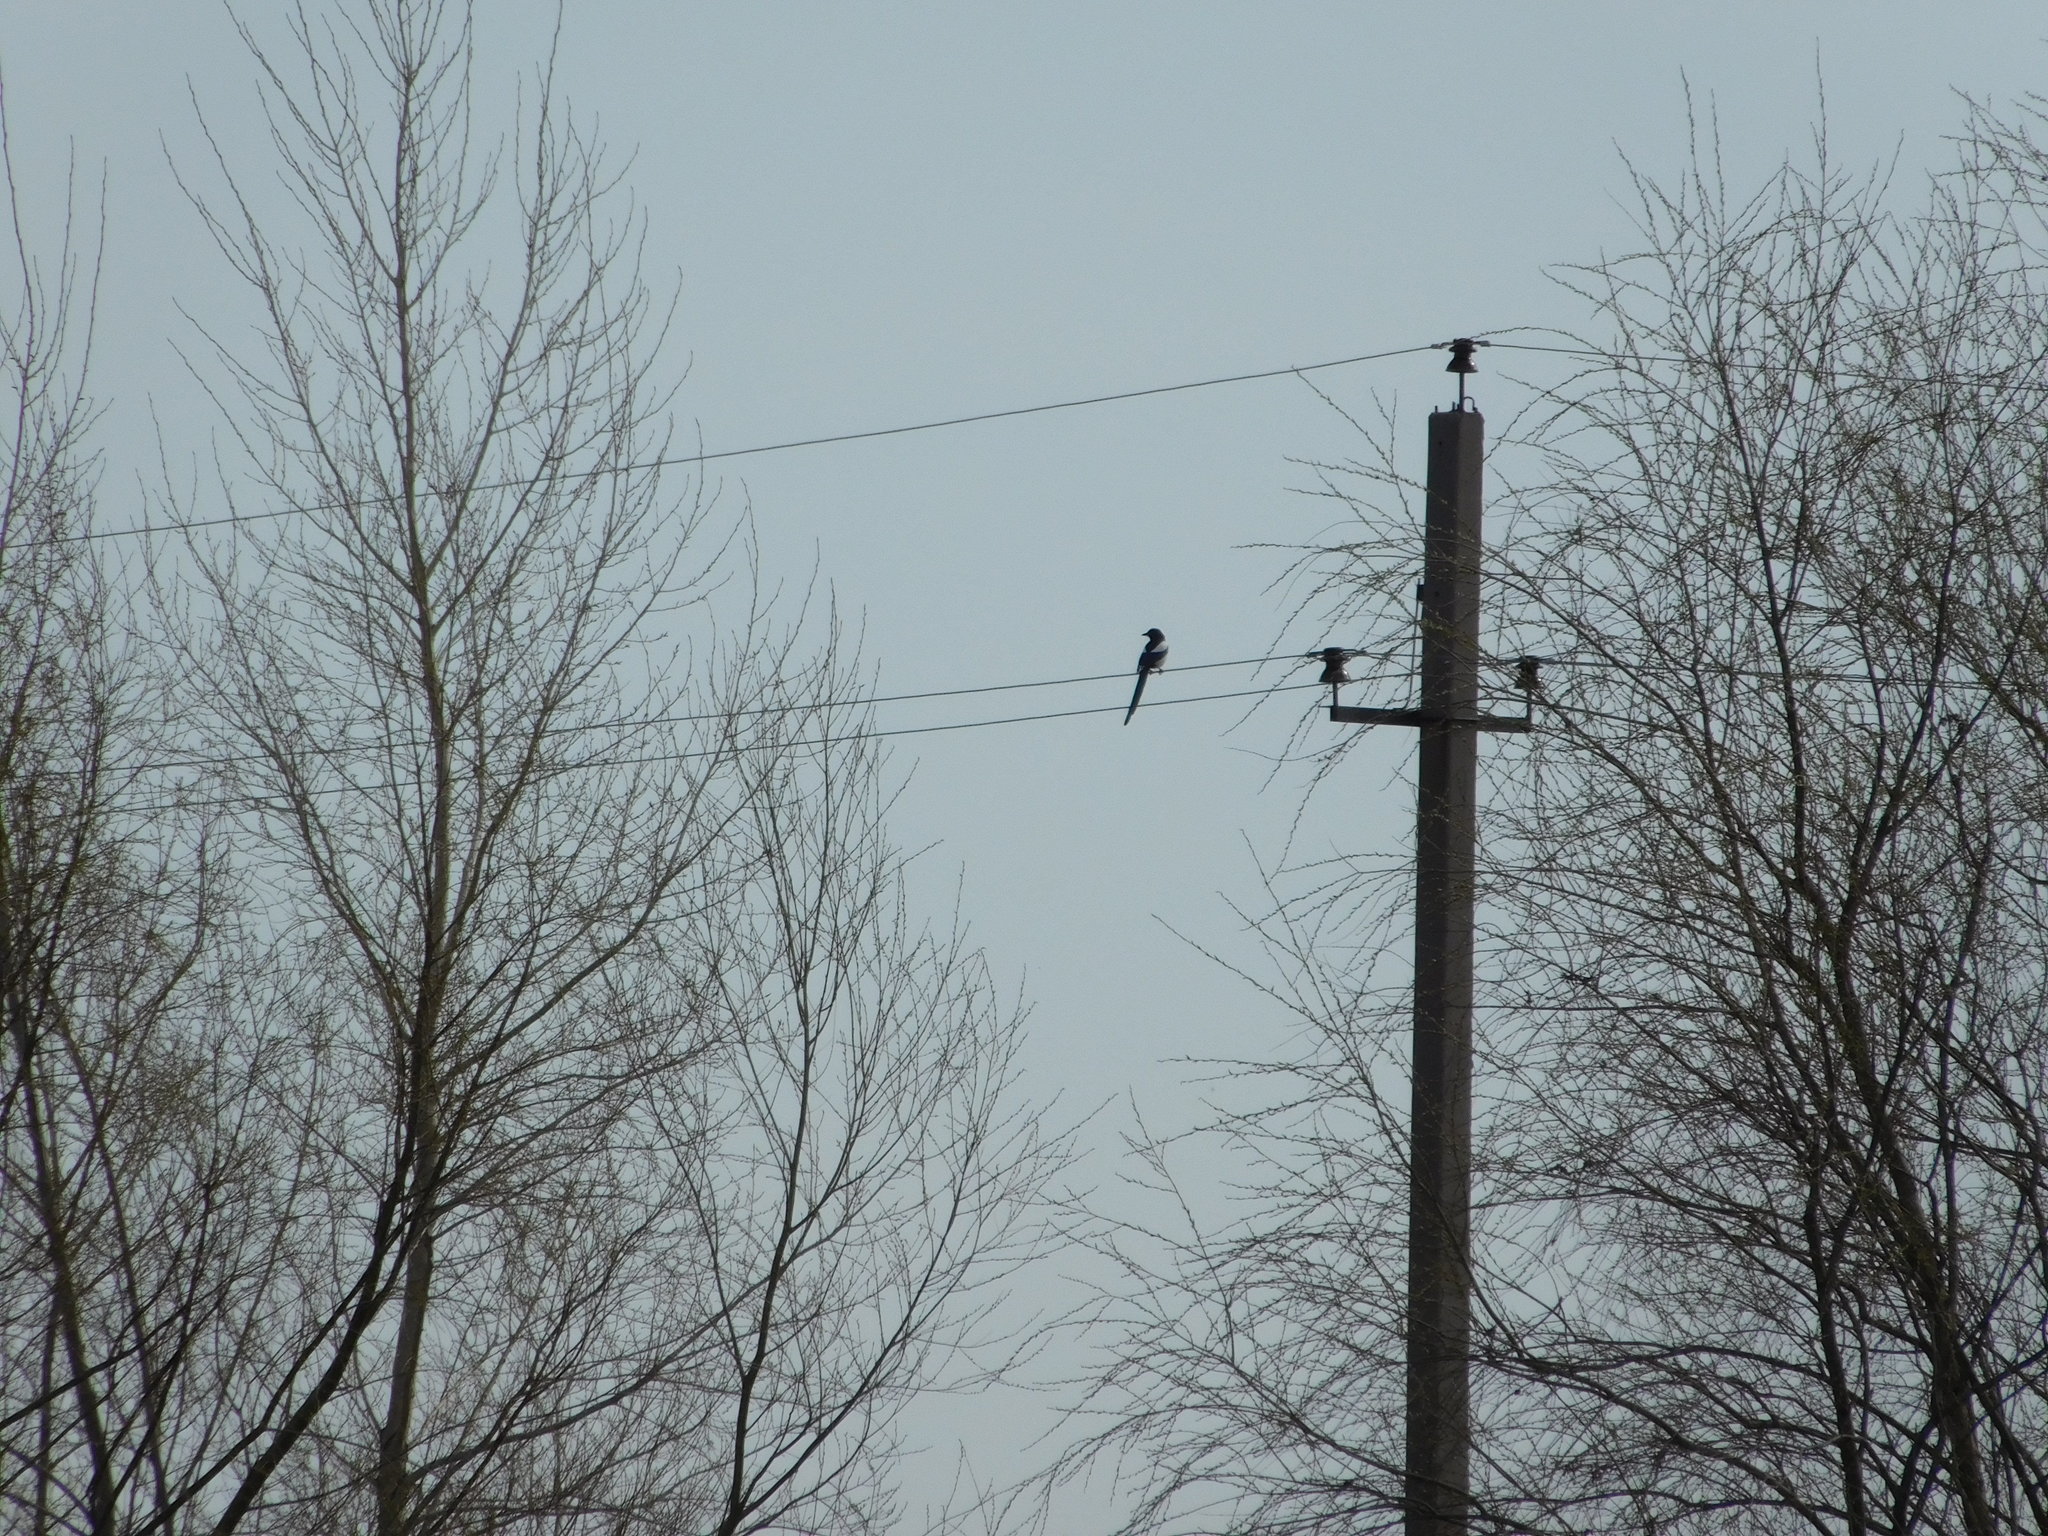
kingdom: Animalia
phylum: Chordata
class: Aves
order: Passeriformes
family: Corvidae
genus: Pica
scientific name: Pica pica
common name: Eurasian magpie
